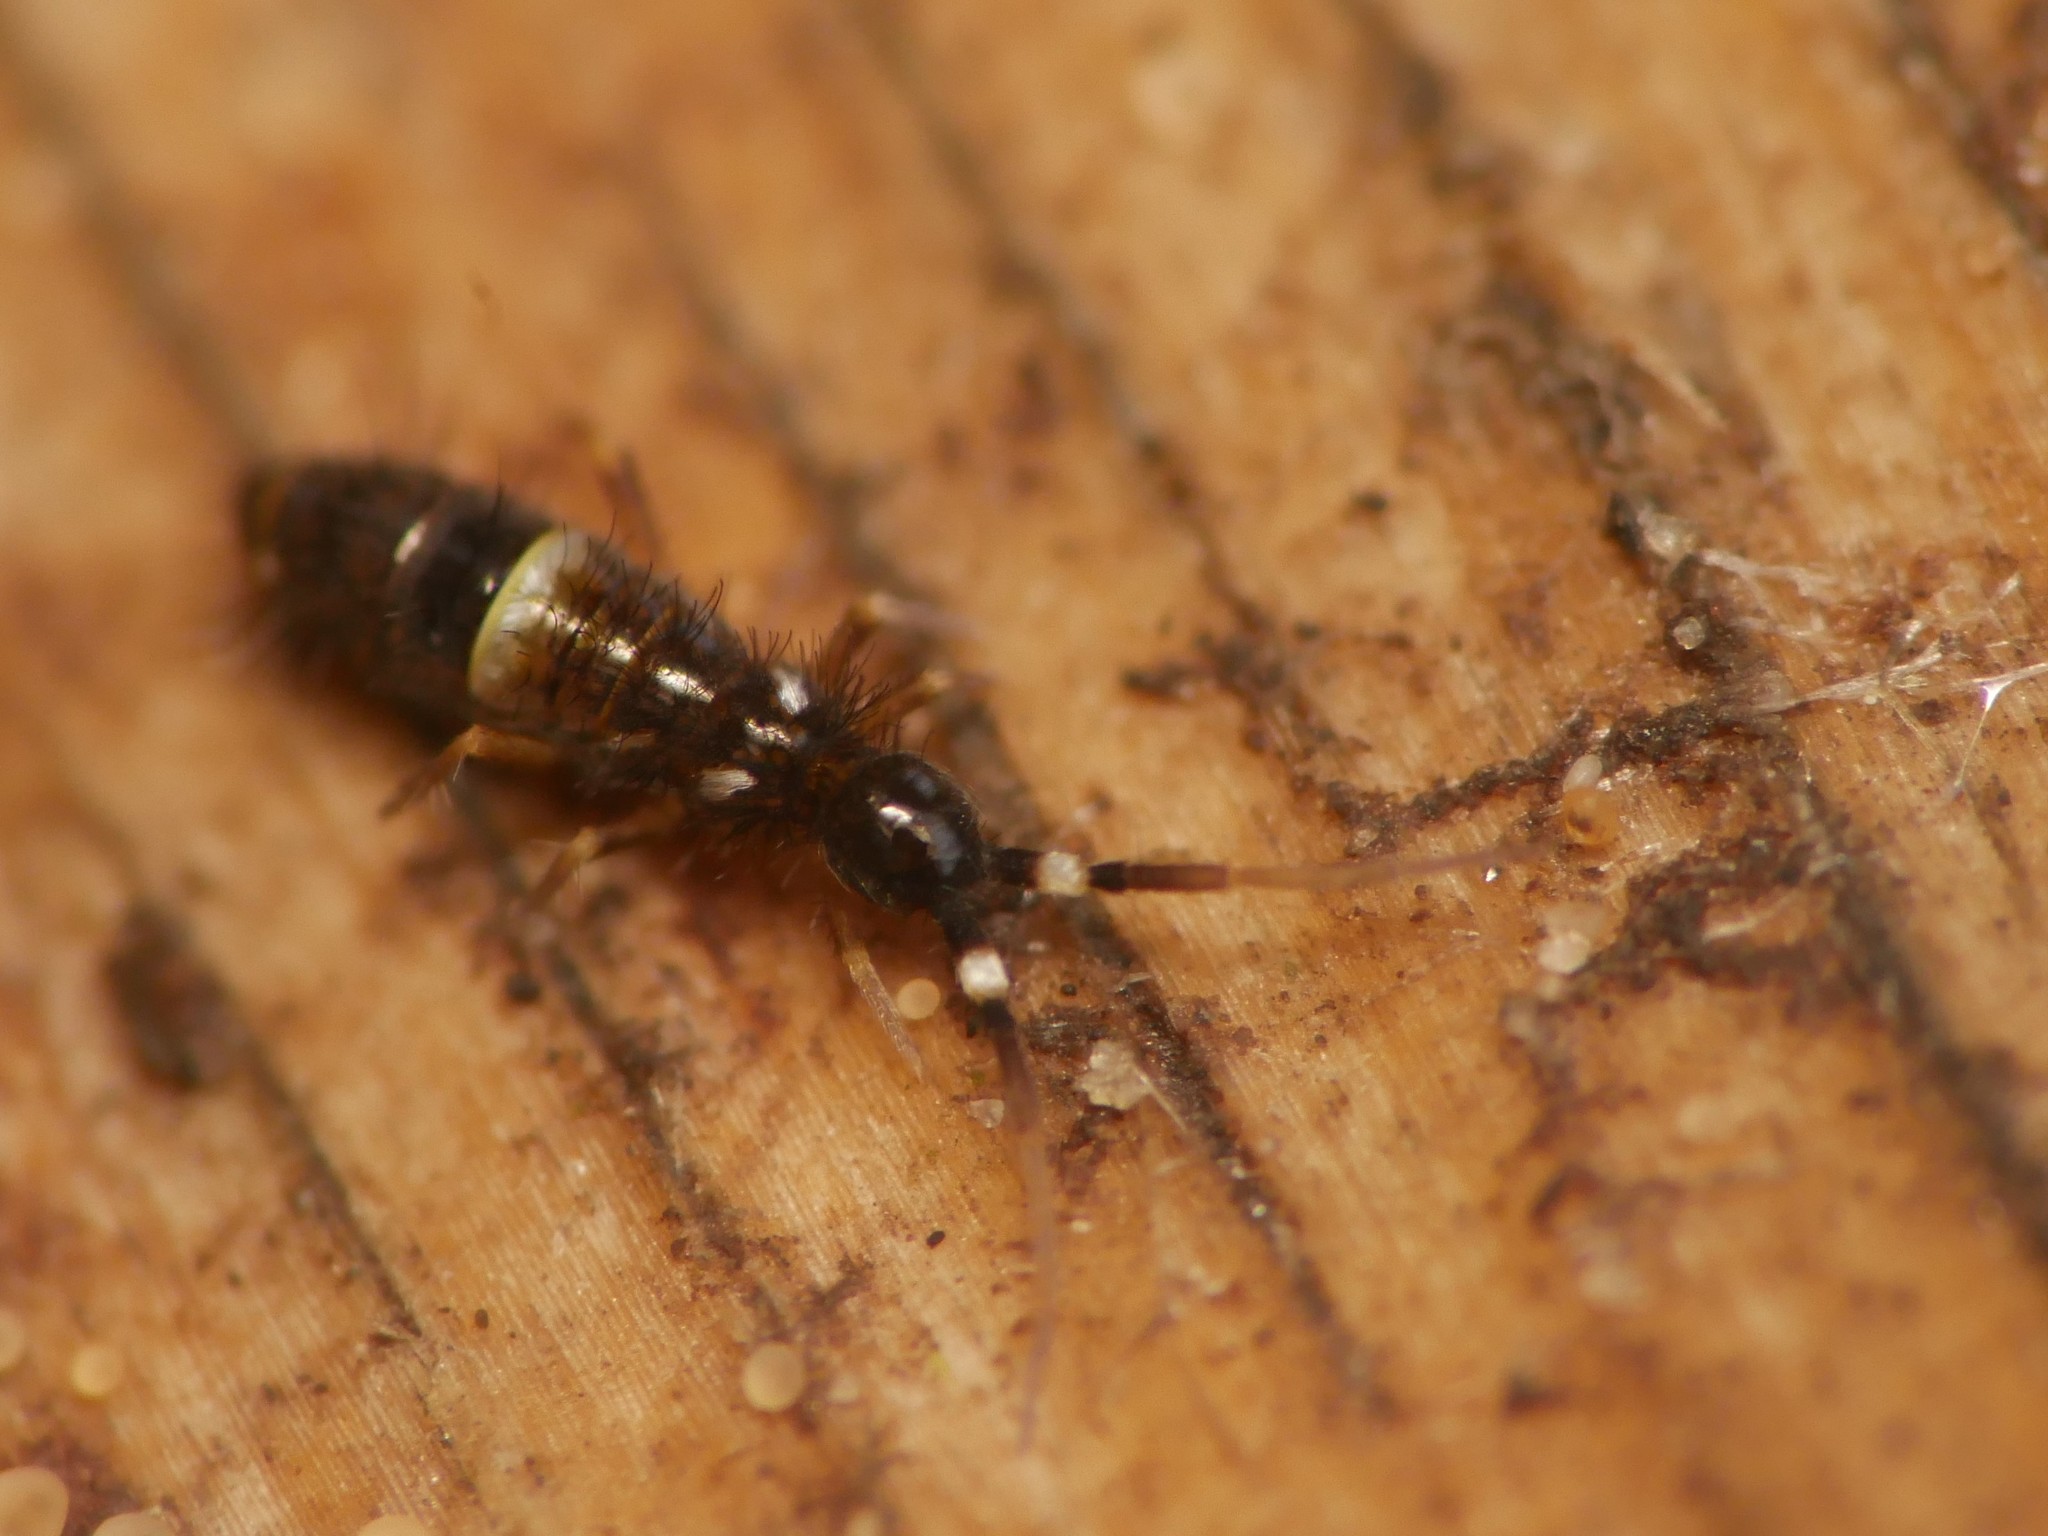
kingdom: Animalia
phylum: Arthropoda
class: Collembola
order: Entomobryomorpha
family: Orchesellidae
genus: Orchesella
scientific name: Orchesella cincta
